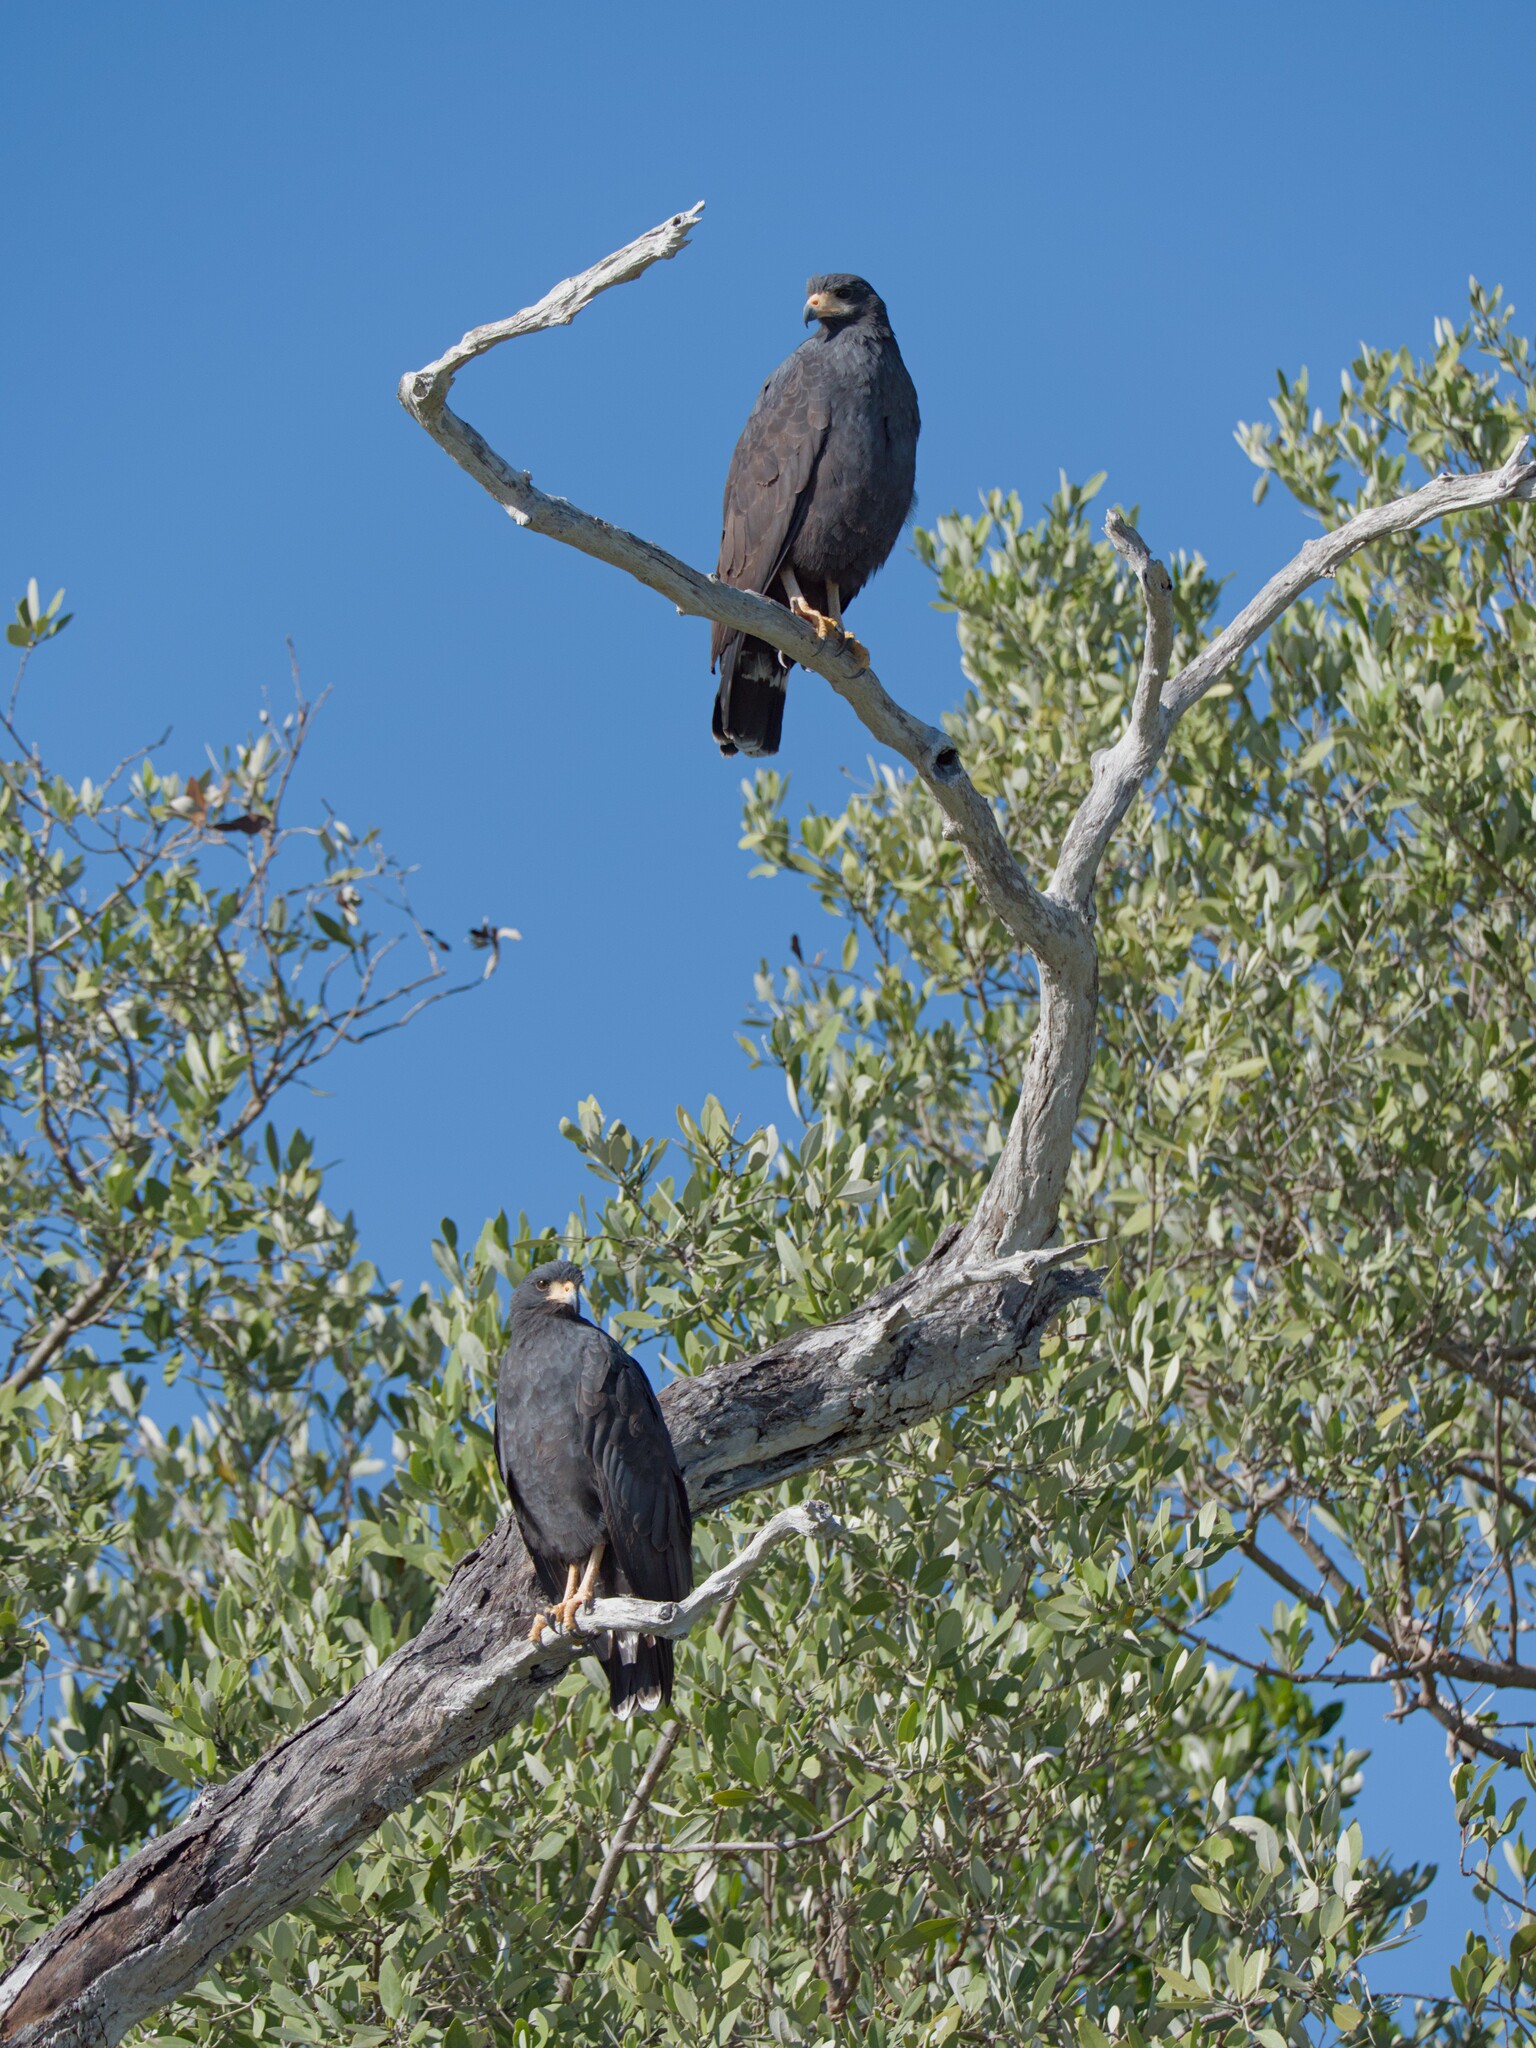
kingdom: Animalia
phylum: Chordata
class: Aves
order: Accipitriformes
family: Accipitridae
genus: Buteogallus
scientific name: Buteogallus anthracinus
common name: Common black hawk
